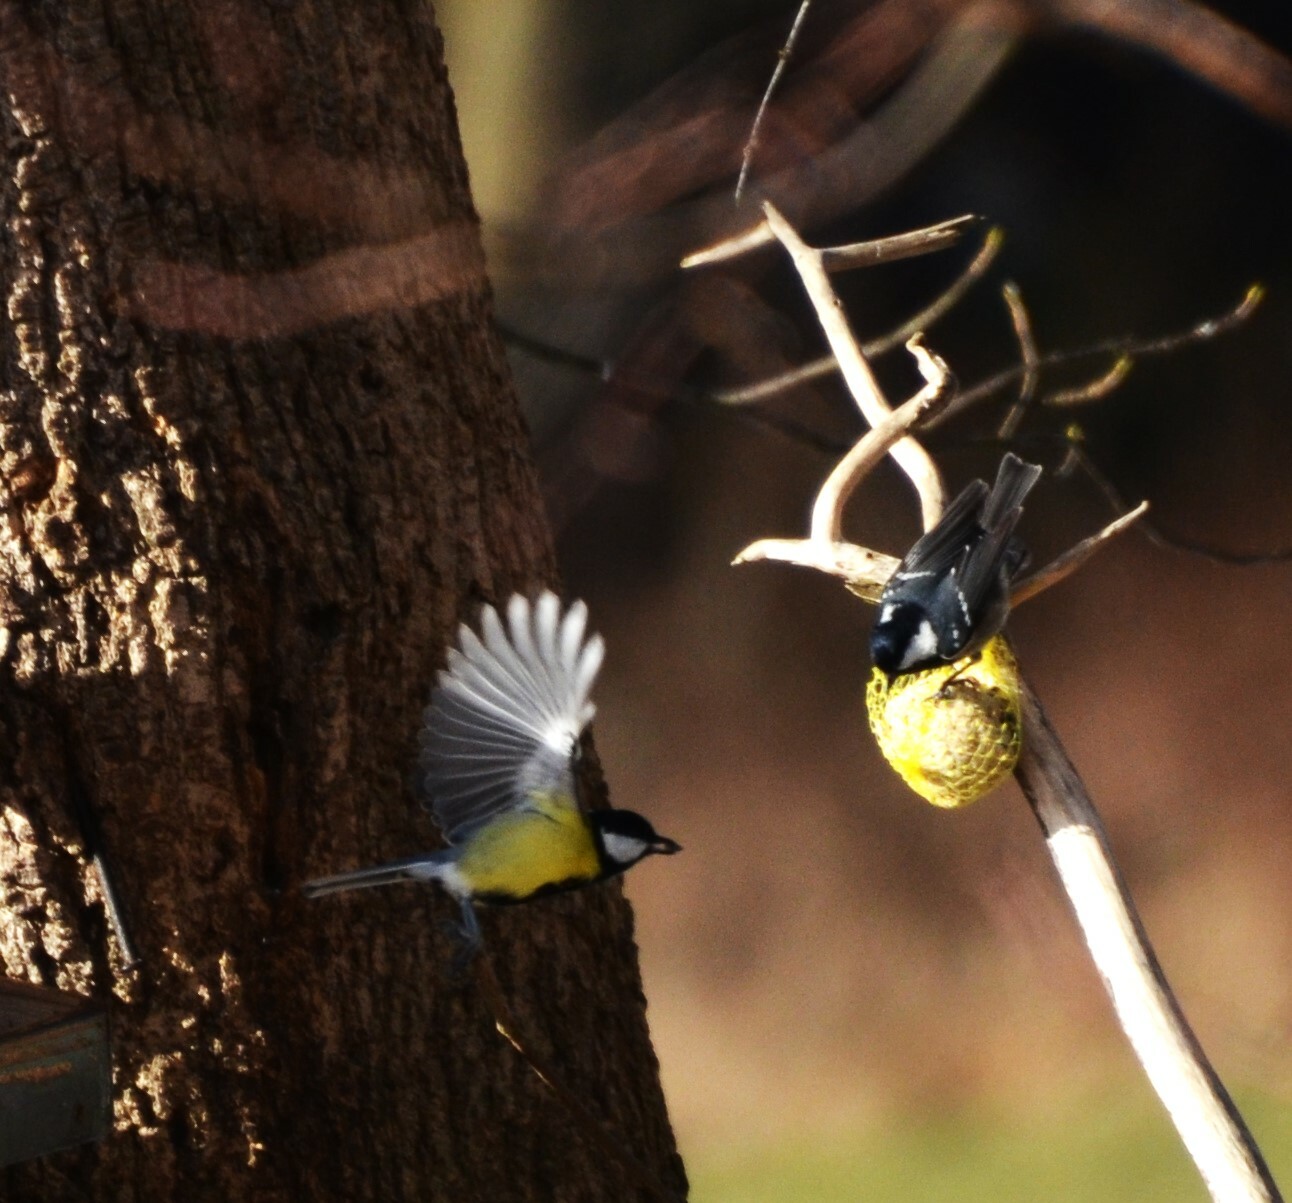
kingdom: Animalia
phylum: Chordata
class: Aves
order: Passeriformes
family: Paridae
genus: Periparus
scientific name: Periparus ater
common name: Coal tit
